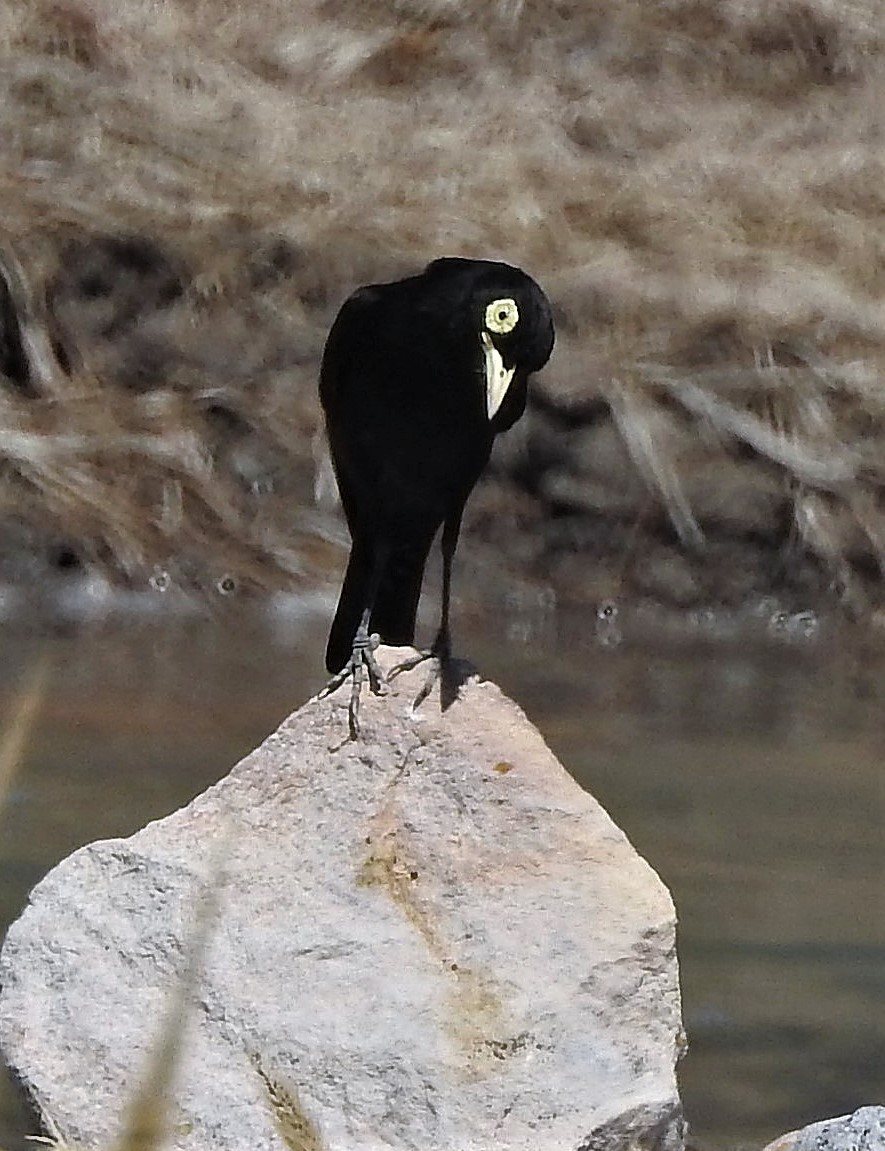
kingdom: Animalia
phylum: Chordata
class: Aves
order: Passeriformes
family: Tyrannidae
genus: Hymenops
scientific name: Hymenops perspicillatus
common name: Spectacled tyrant
